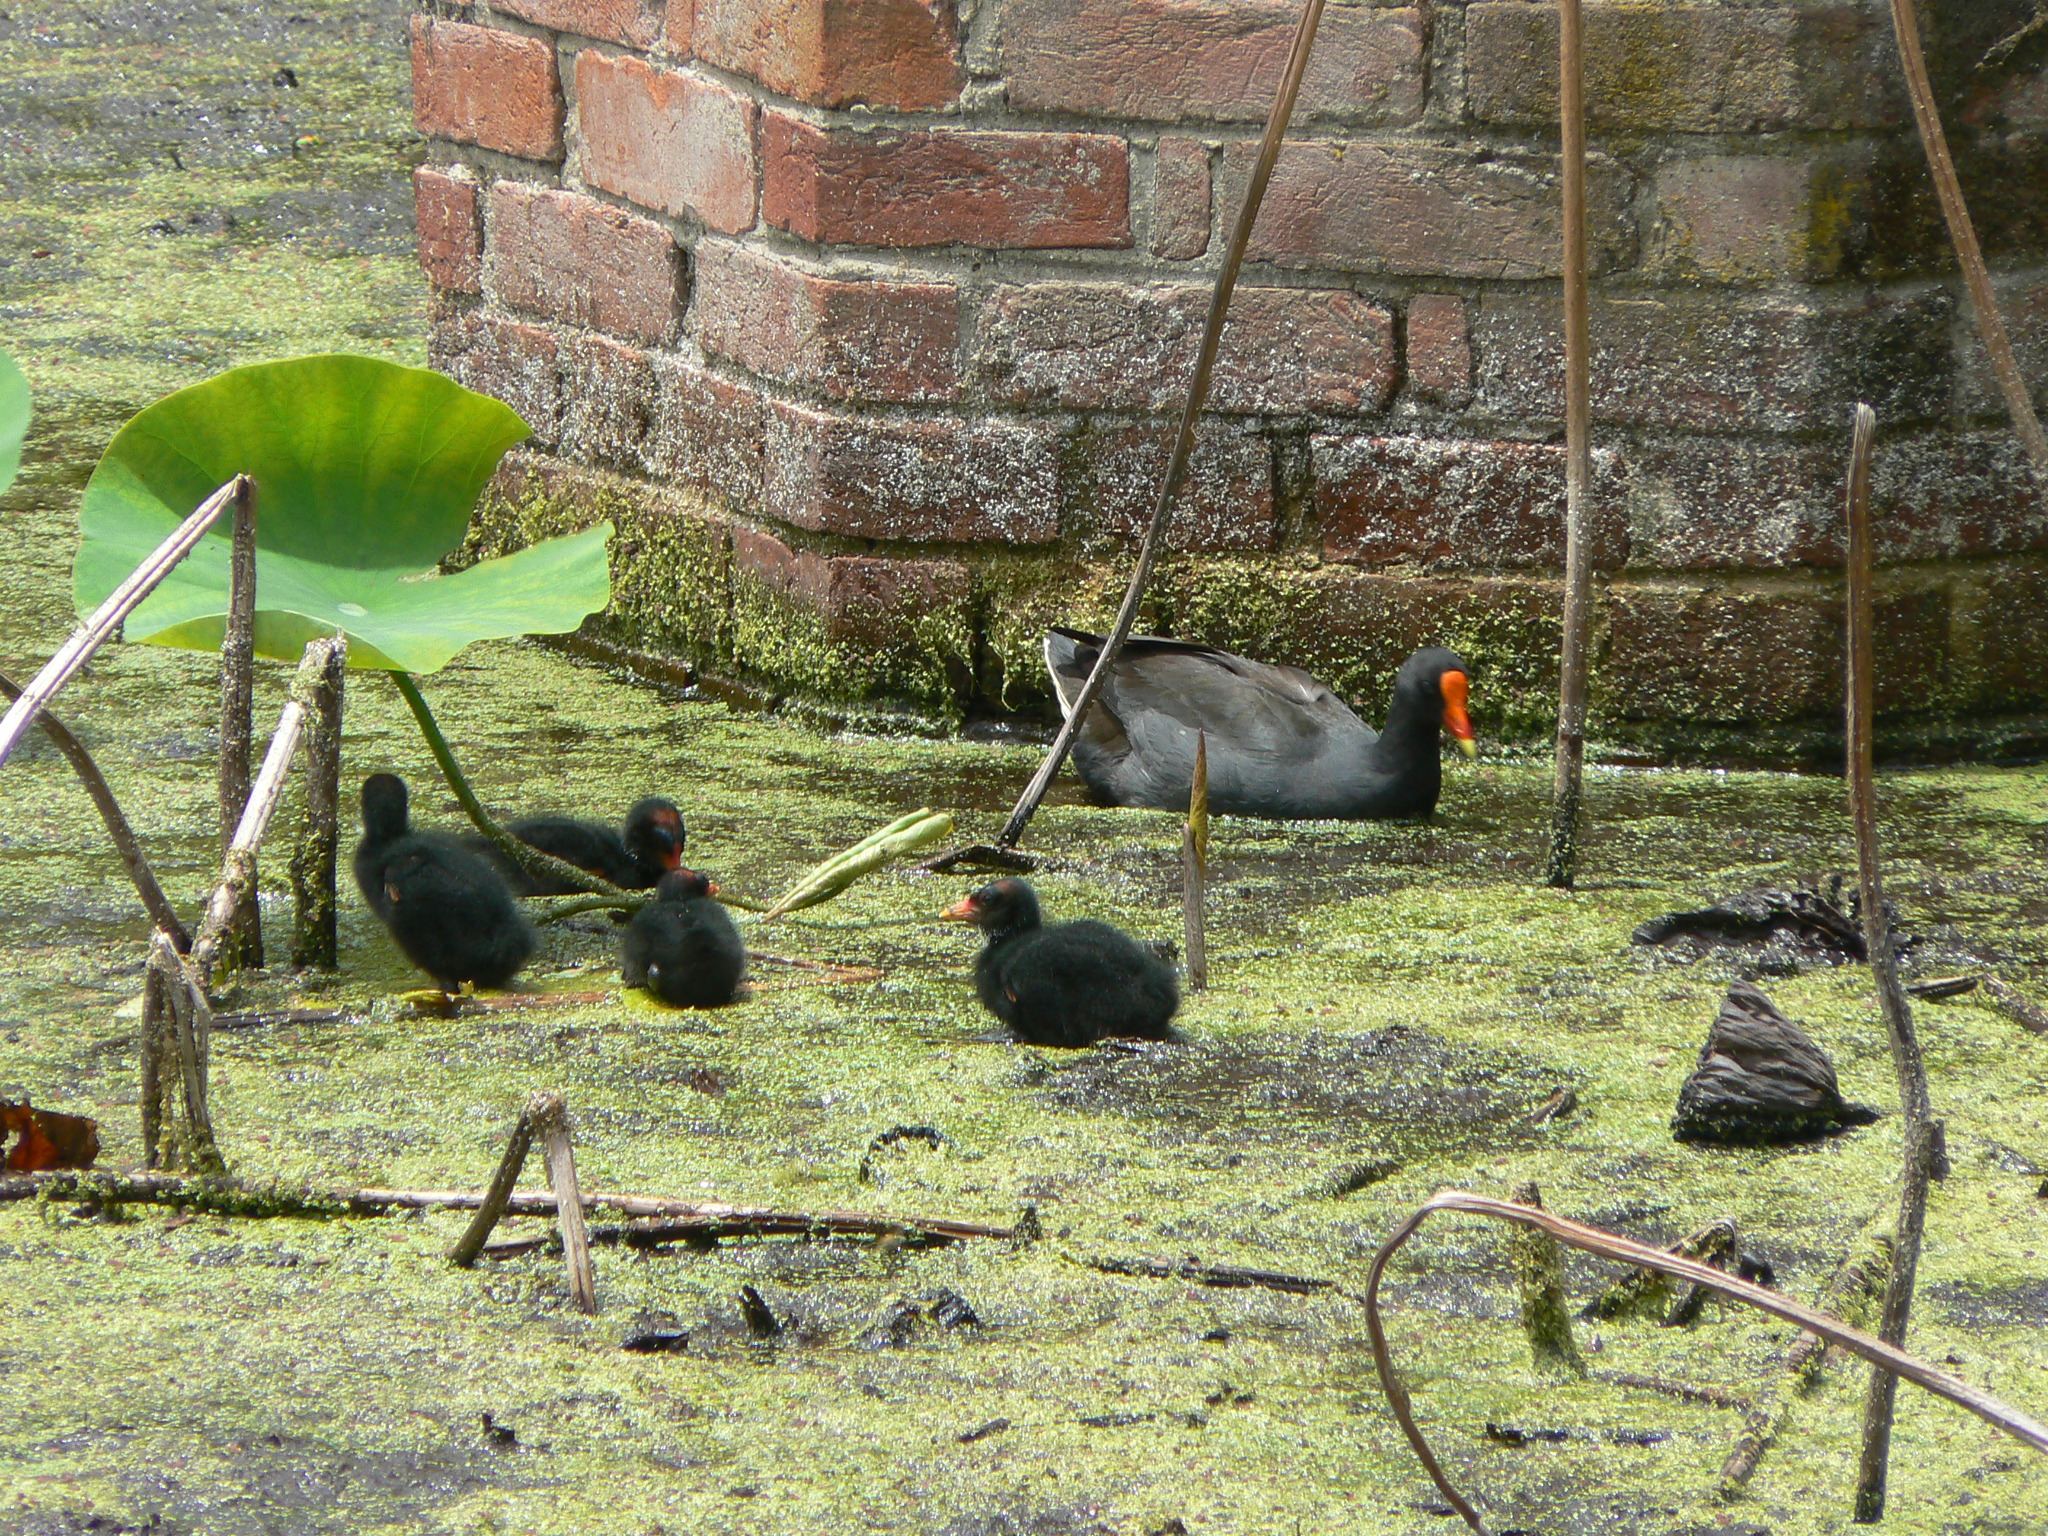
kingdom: Animalia
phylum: Chordata
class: Aves
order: Gruiformes
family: Rallidae
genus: Gallinula
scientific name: Gallinula tenebrosa
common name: Dusky moorhen
